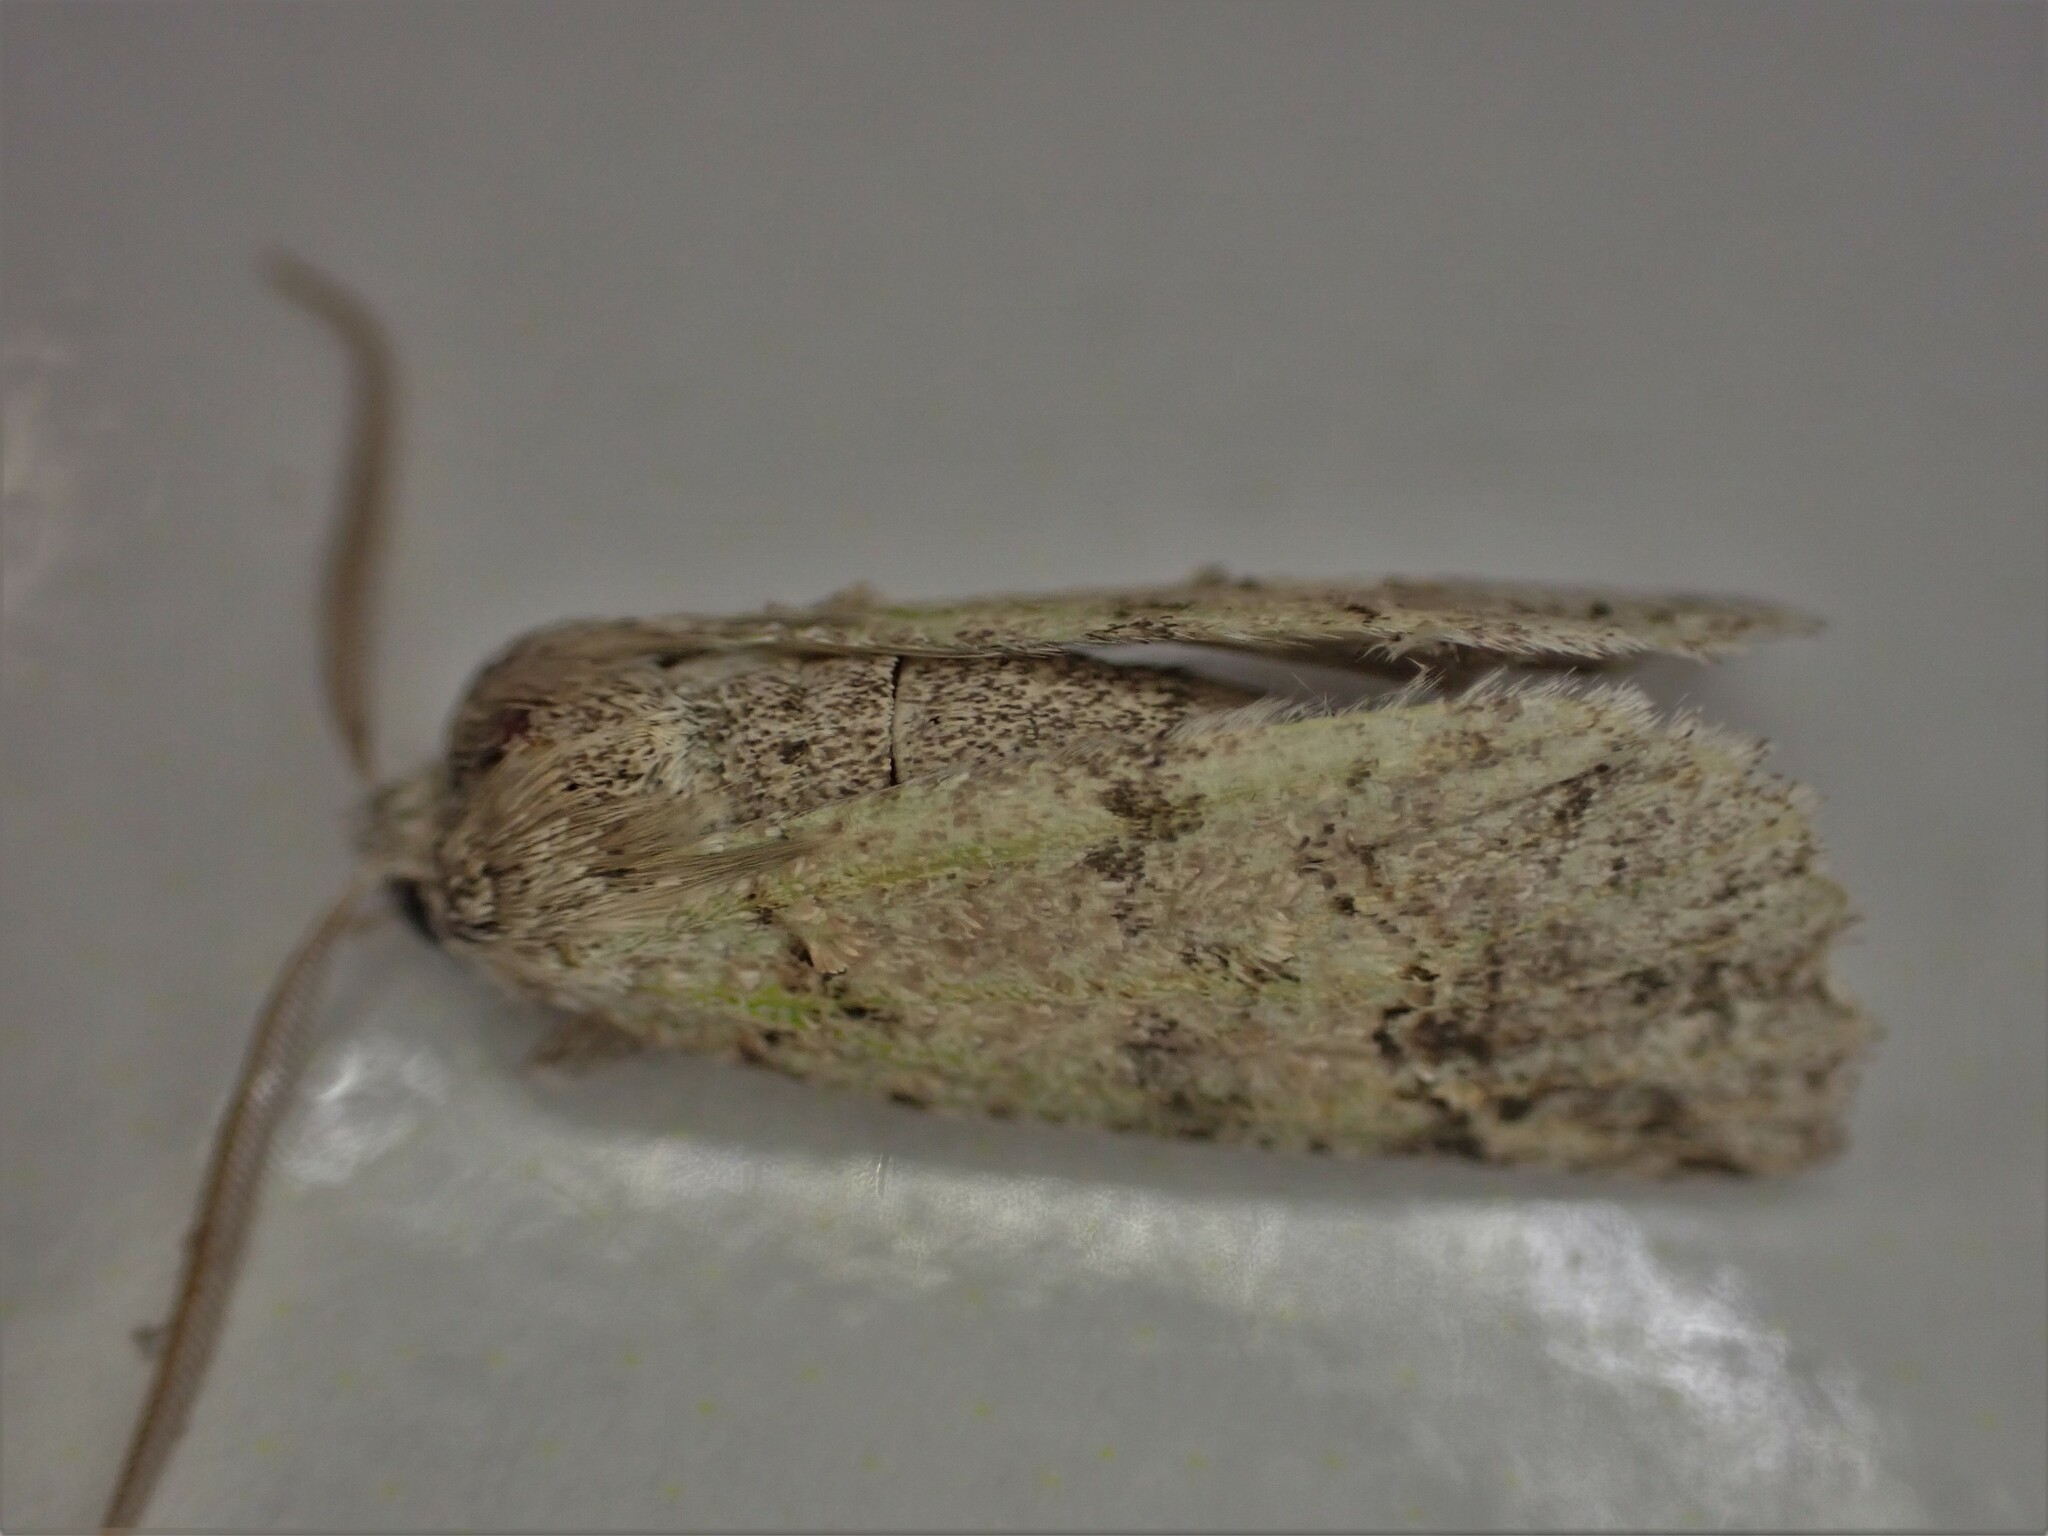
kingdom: Animalia
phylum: Arthropoda
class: Insecta
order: Lepidoptera
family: Geometridae
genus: Declana
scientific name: Declana floccosa
